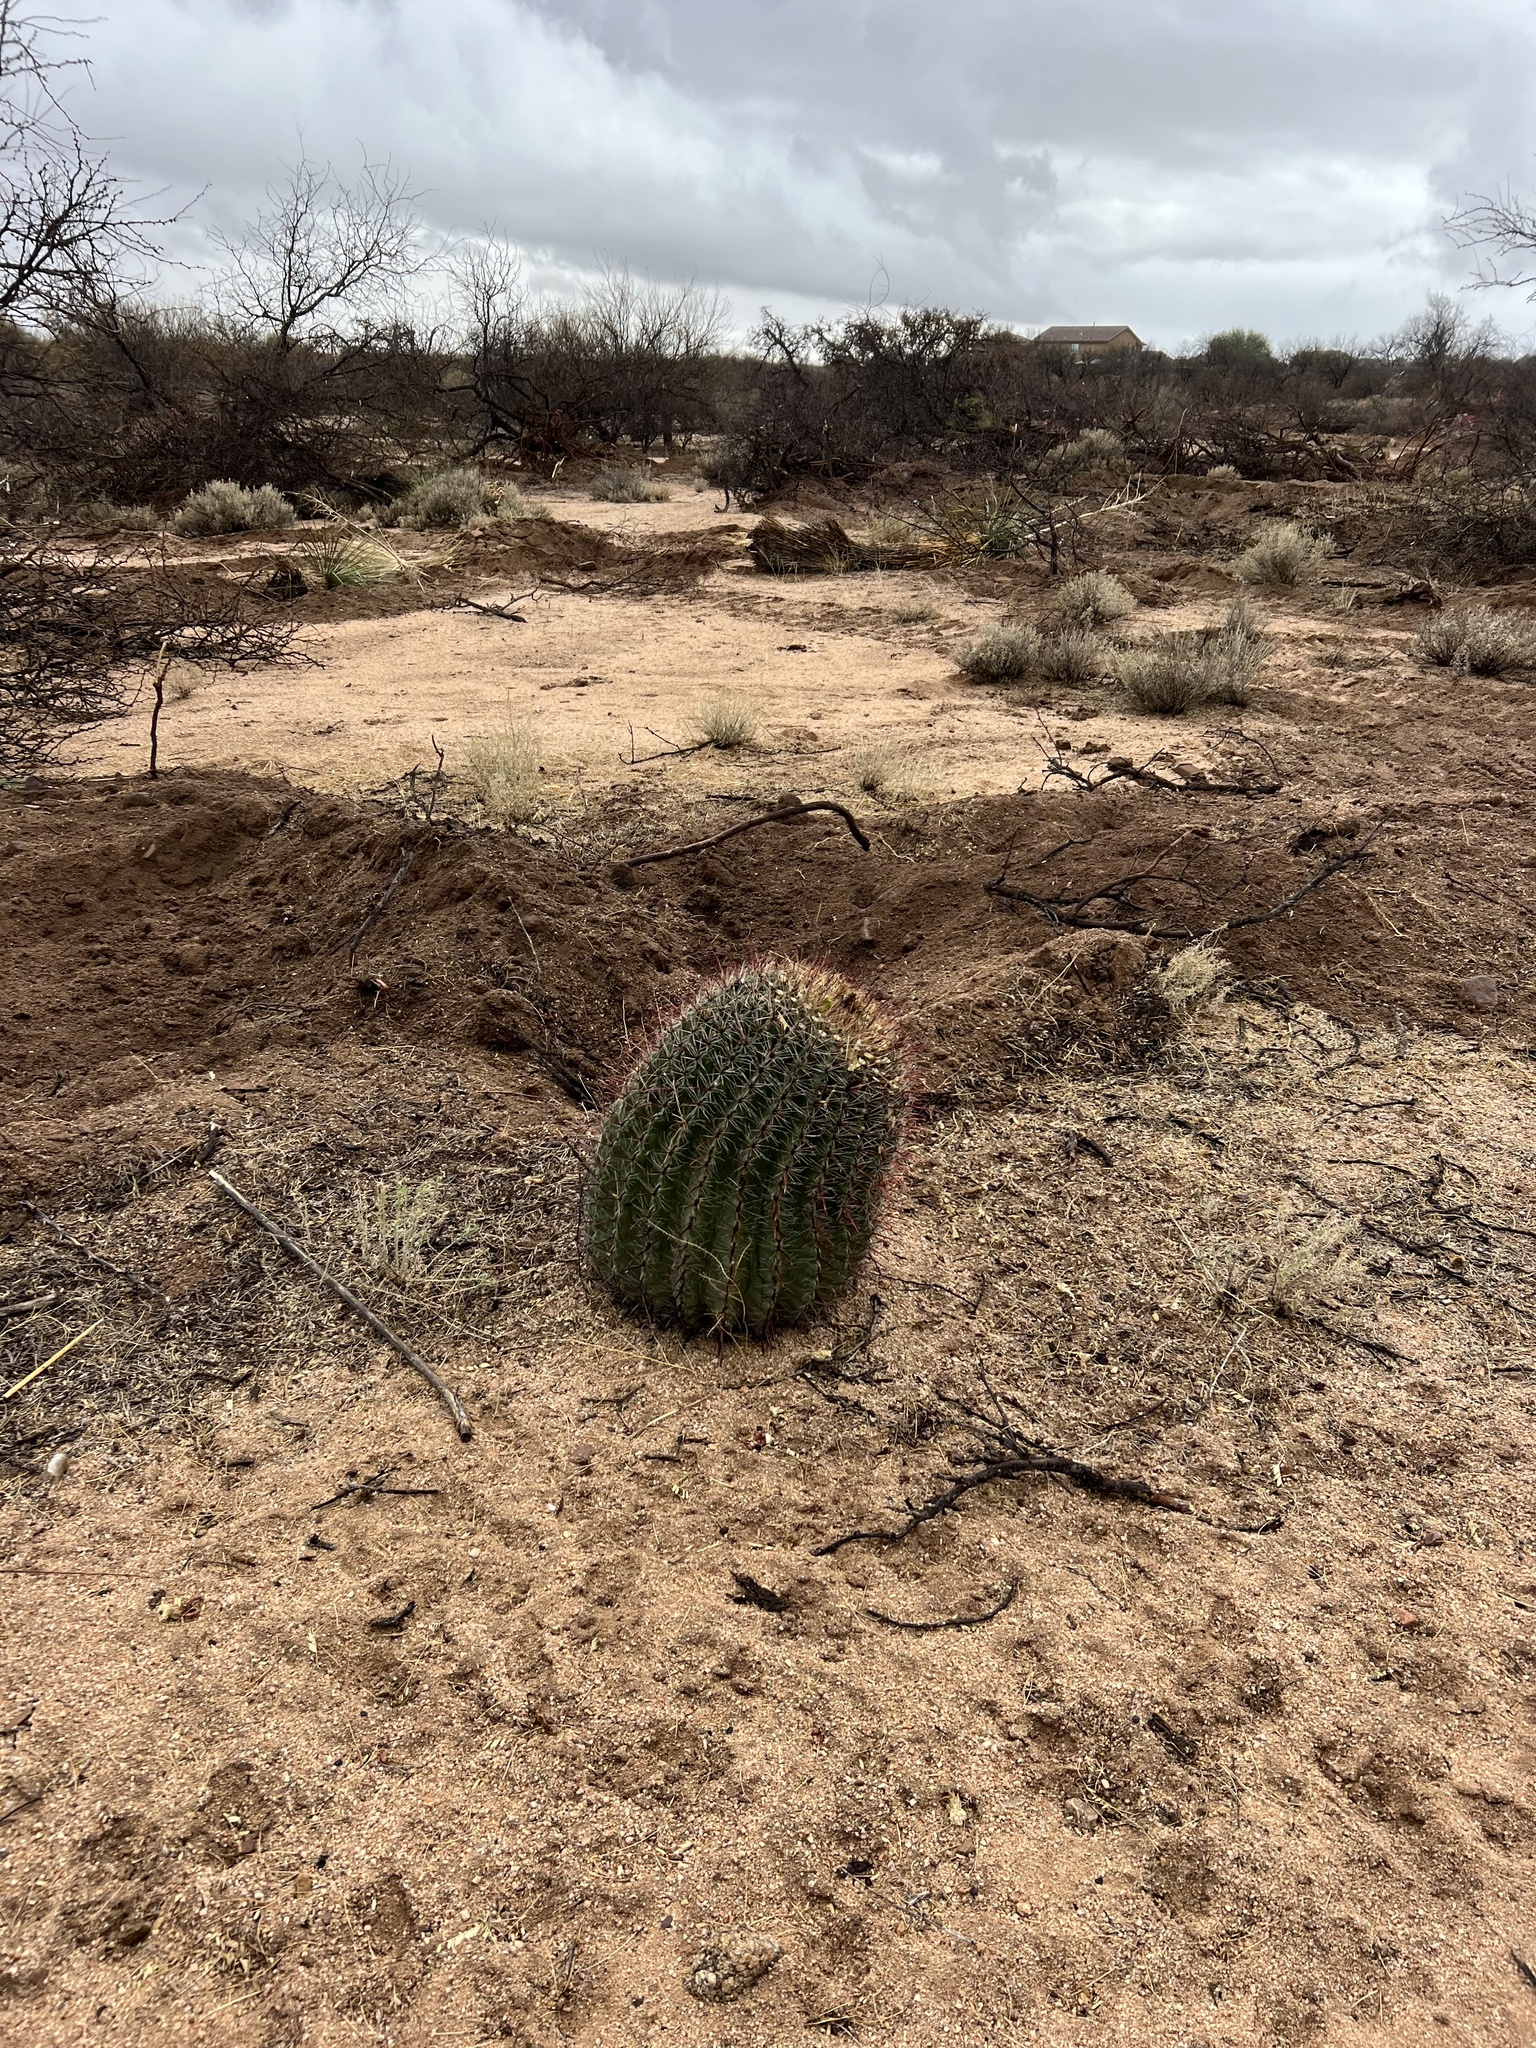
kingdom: Plantae
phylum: Tracheophyta
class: Magnoliopsida
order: Caryophyllales
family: Cactaceae
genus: Ferocactus
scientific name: Ferocactus wislizeni
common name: Candy barrel cactus
